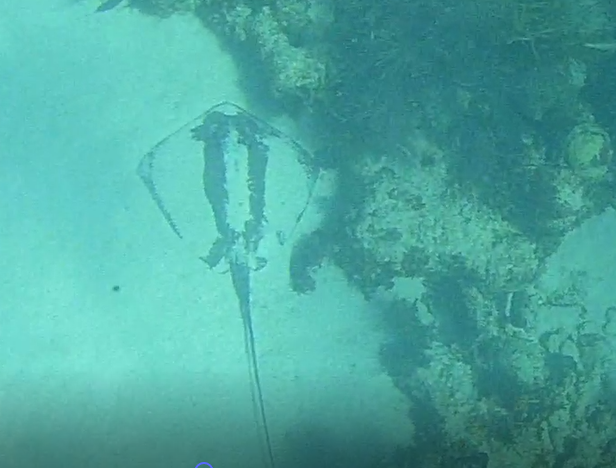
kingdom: Animalia
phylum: Chordata
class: Elasmobranchii
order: Myliobatiformes
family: Dasyatidae
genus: Hypanus
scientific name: Hypanus americanus
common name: Southern stingray
